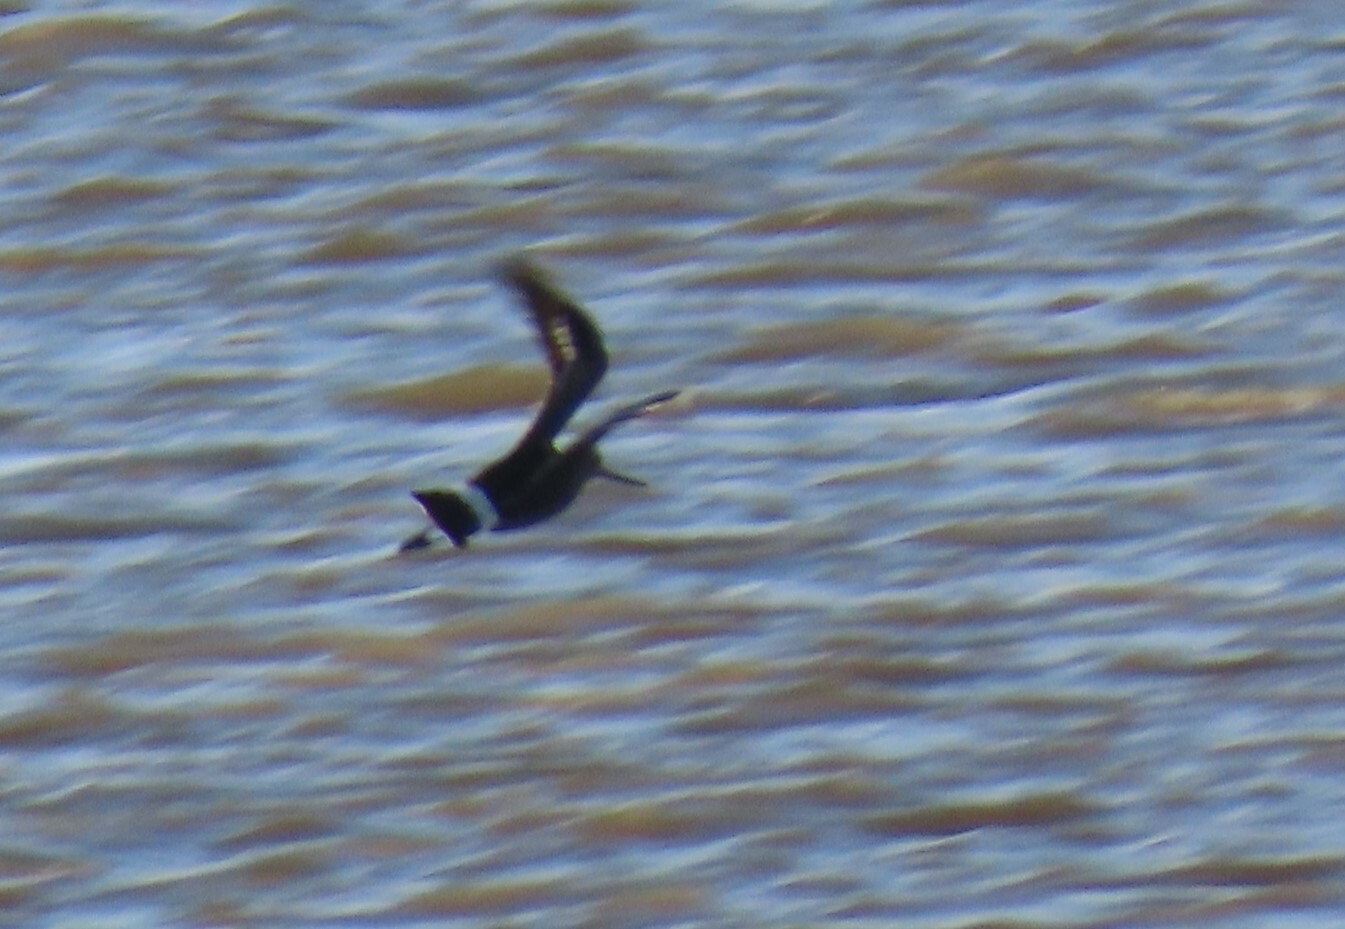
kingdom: Animalia
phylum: Chordata
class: Aves
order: Charadriiformes
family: Scolopacidae
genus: Limosa
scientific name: Limosa haemastica
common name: Hudsonian godwit
